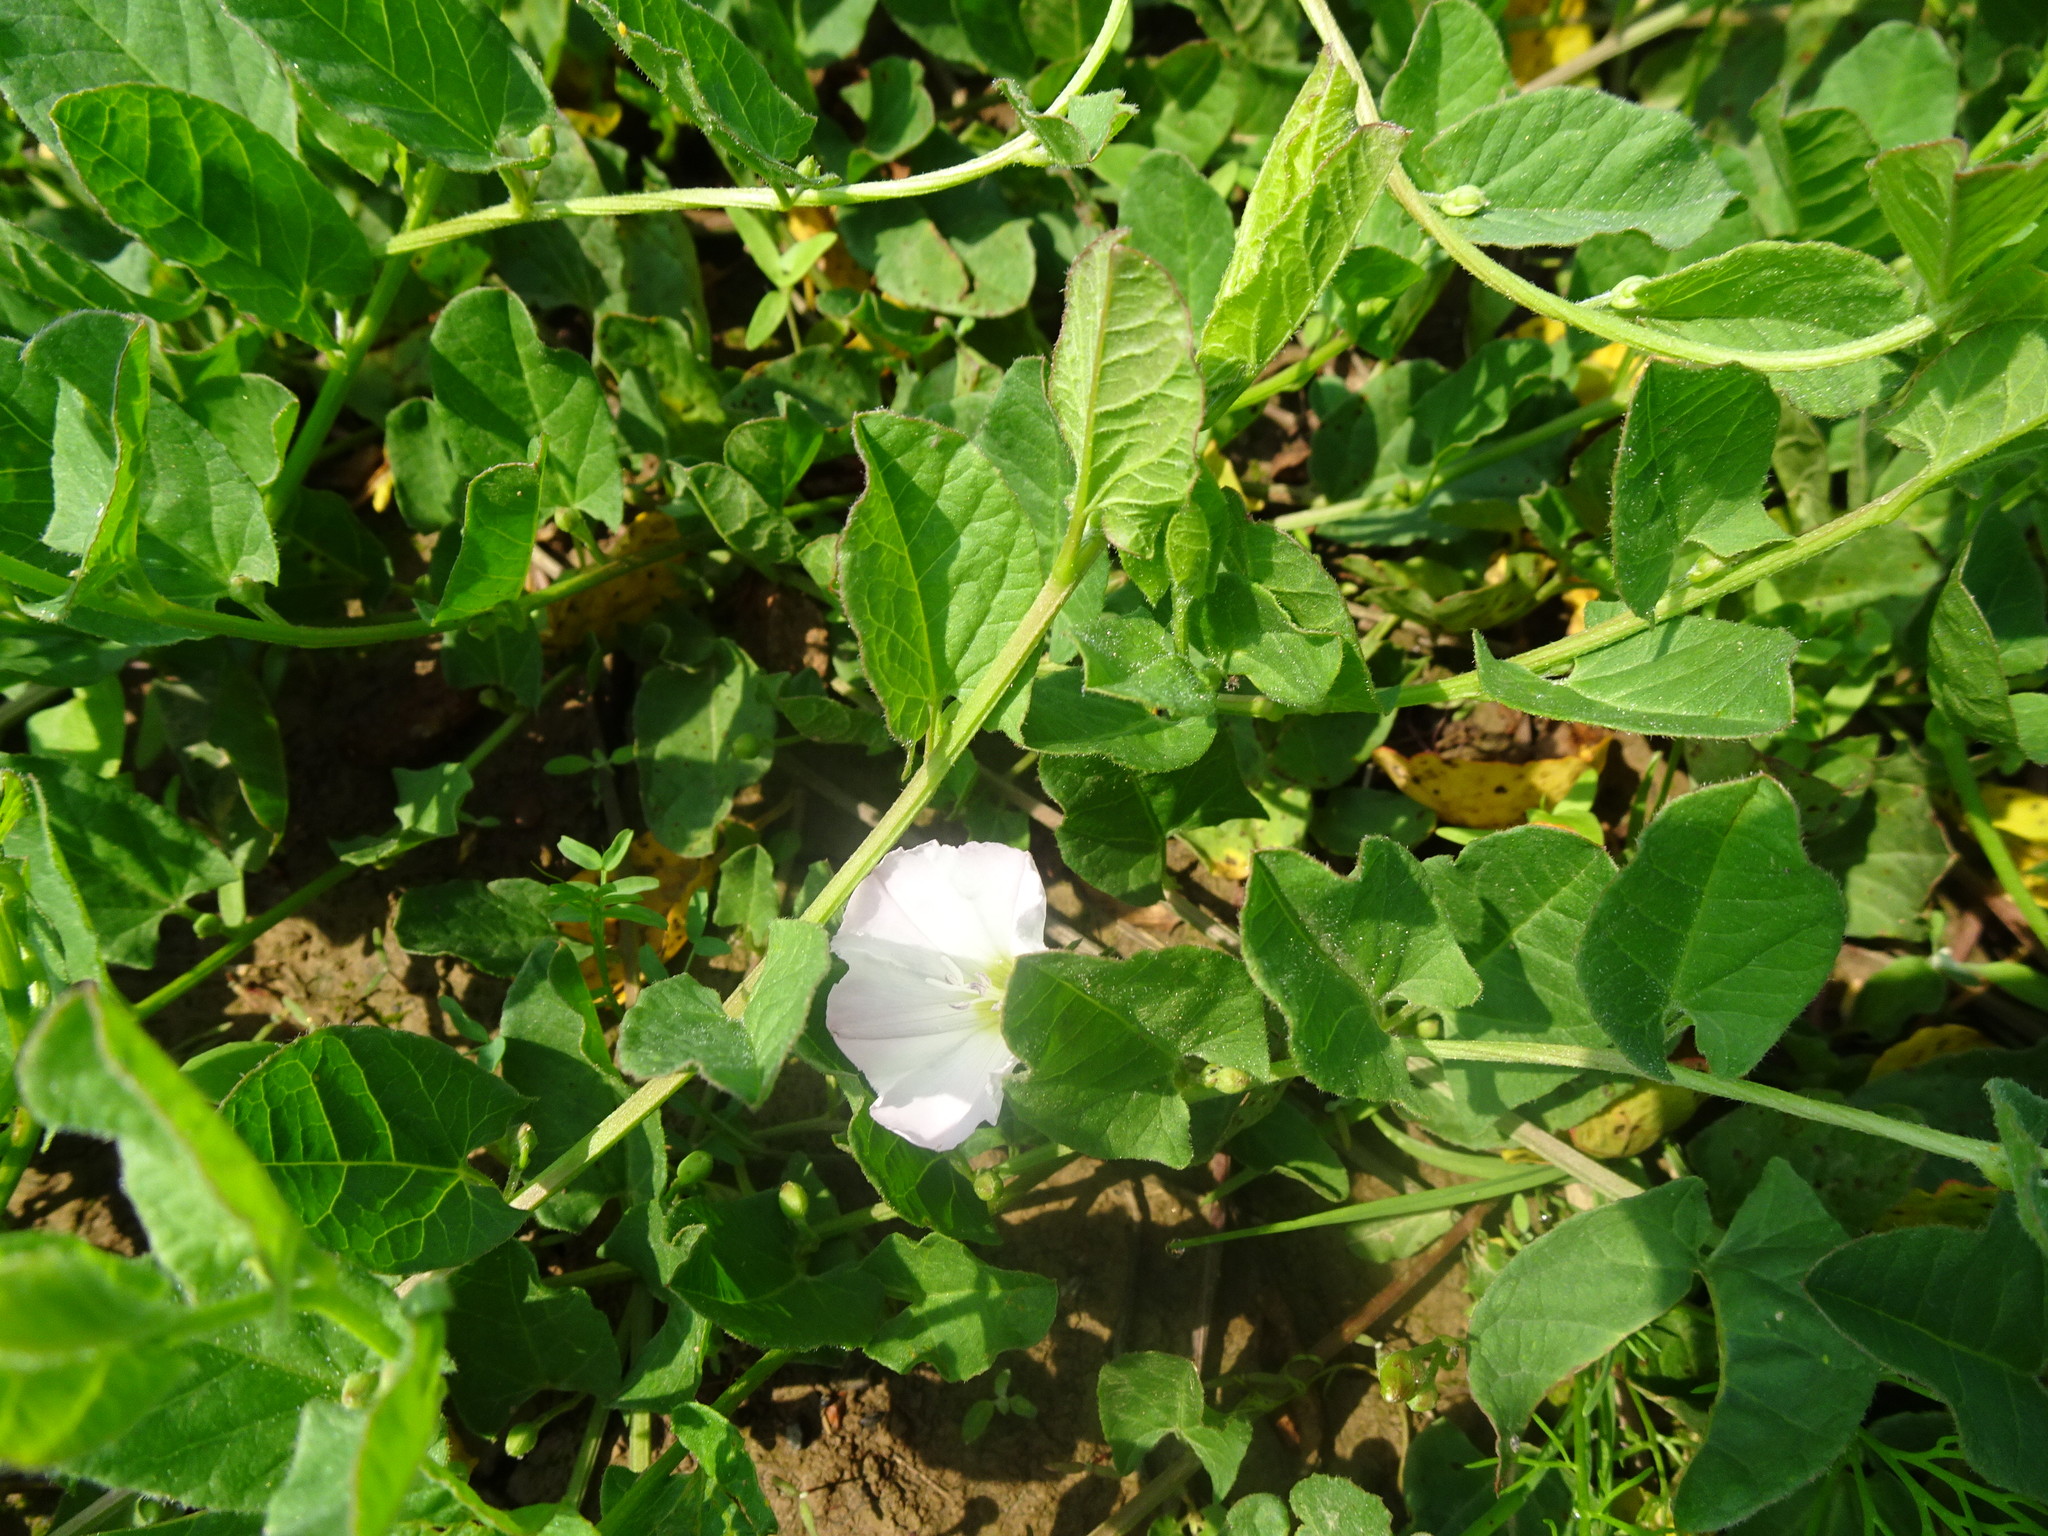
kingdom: Plantae
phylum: Tracheophyta
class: Magnoliopsida
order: Solanales
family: Convolvulaceae
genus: Convolvulus
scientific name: Convolvulus arvensis
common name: Field bindweed
